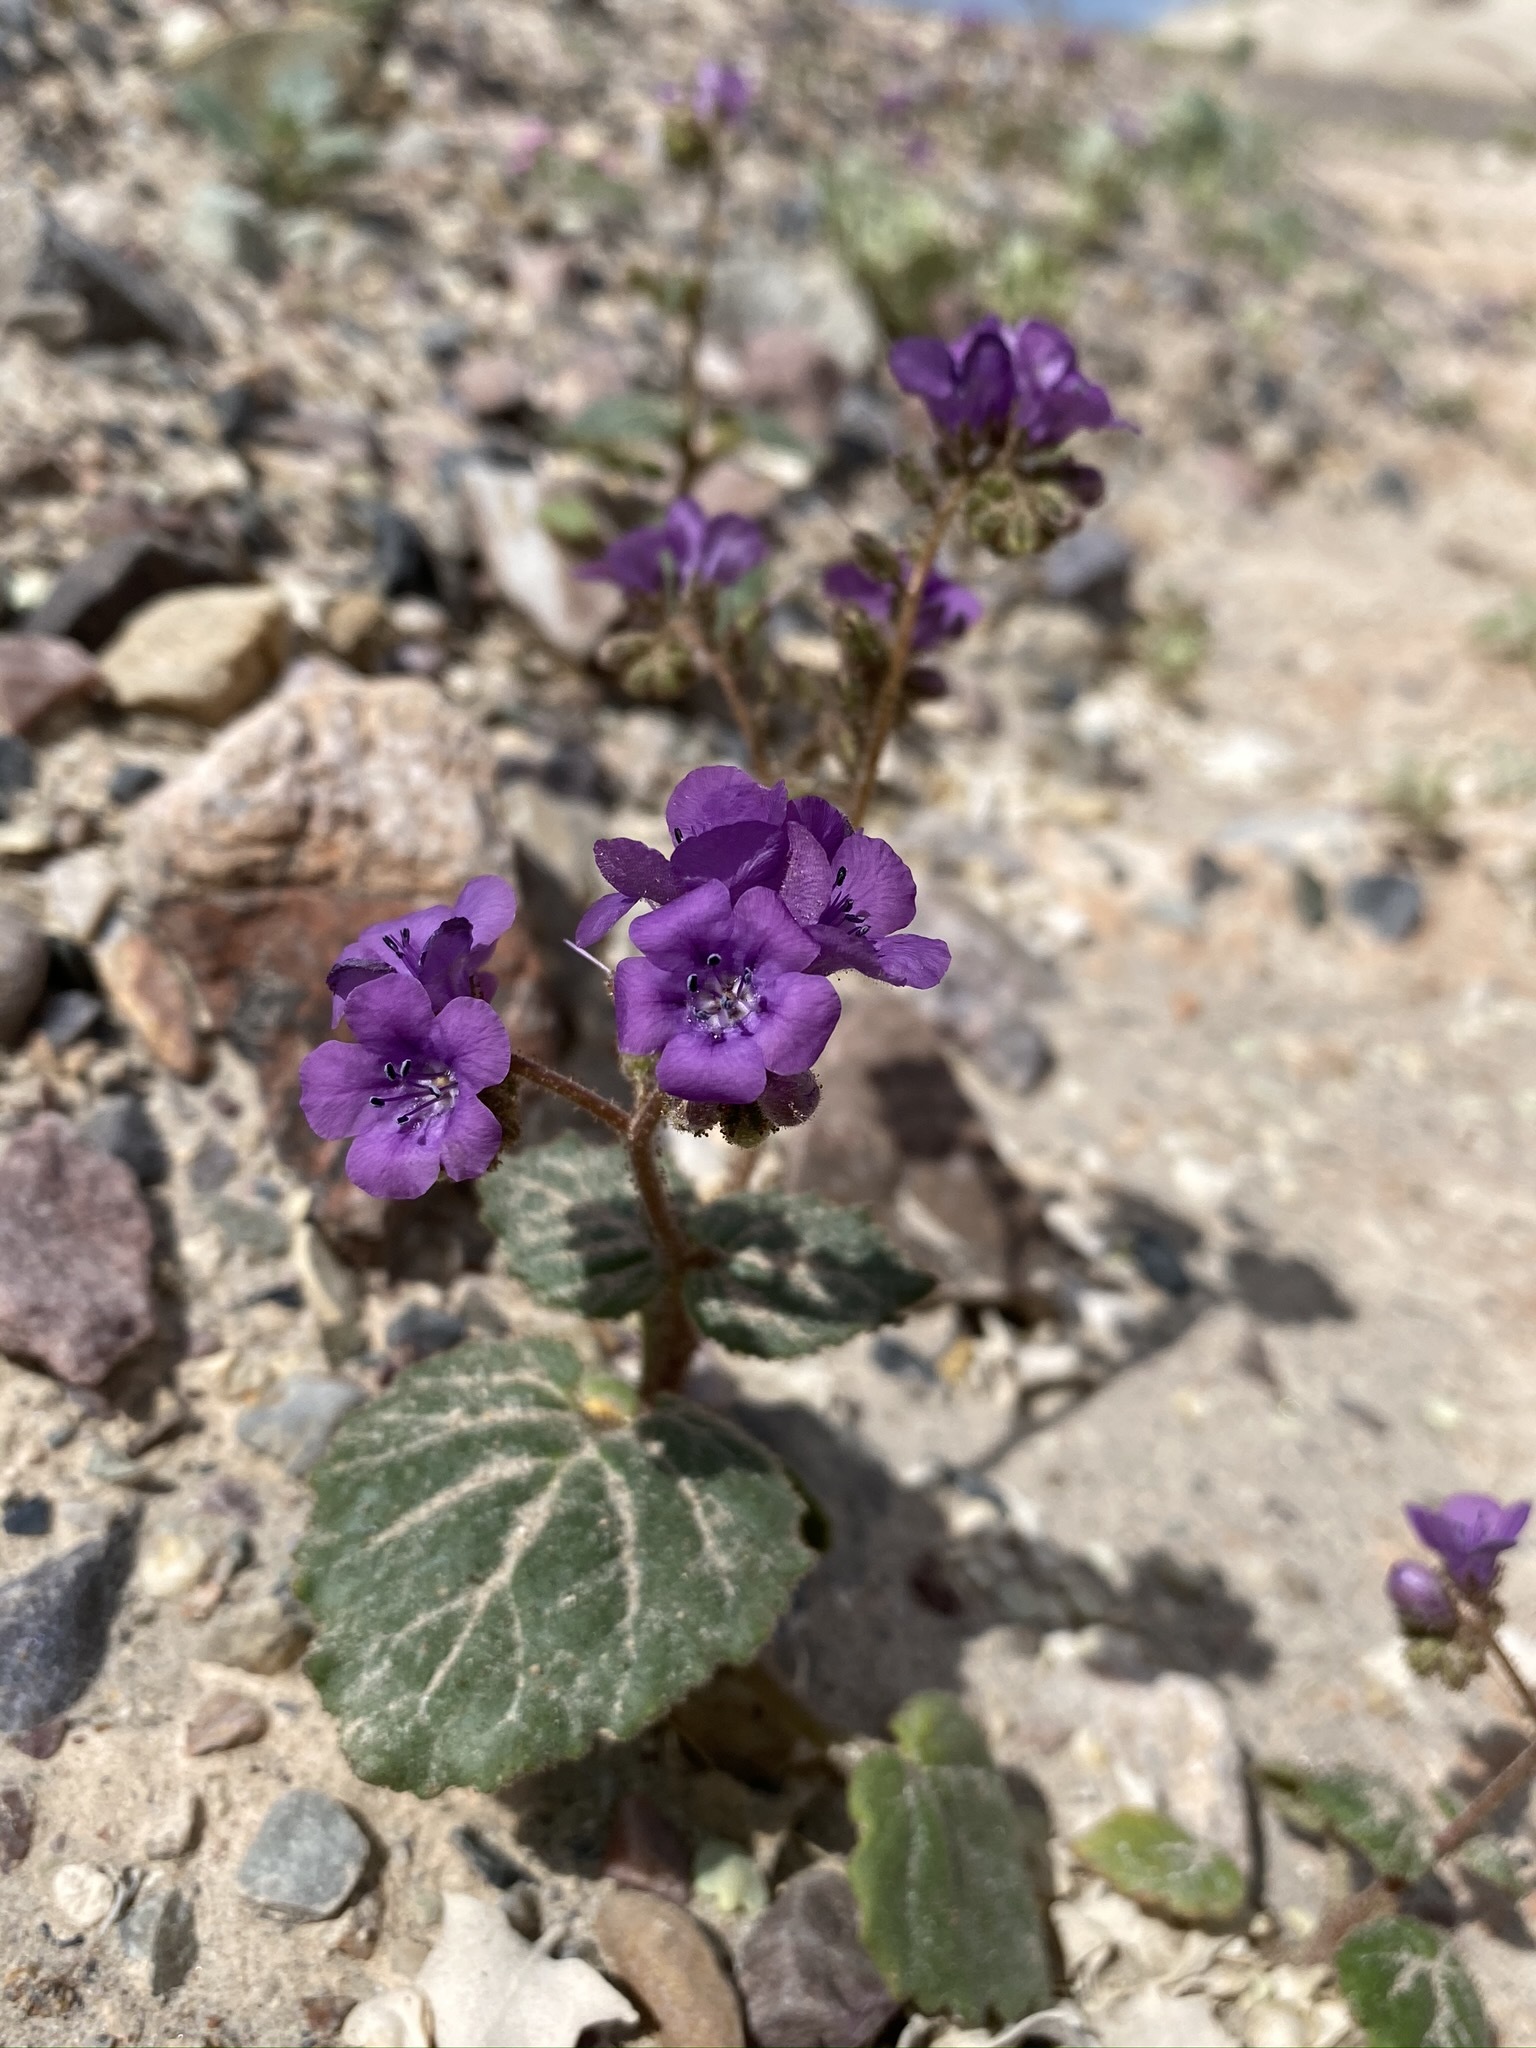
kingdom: Plantae
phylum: Tracheophyta
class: Magnoliopsida
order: Boraginales
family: Hydrophyllaceae
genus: Phacelia
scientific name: Phacelia calthifolia
